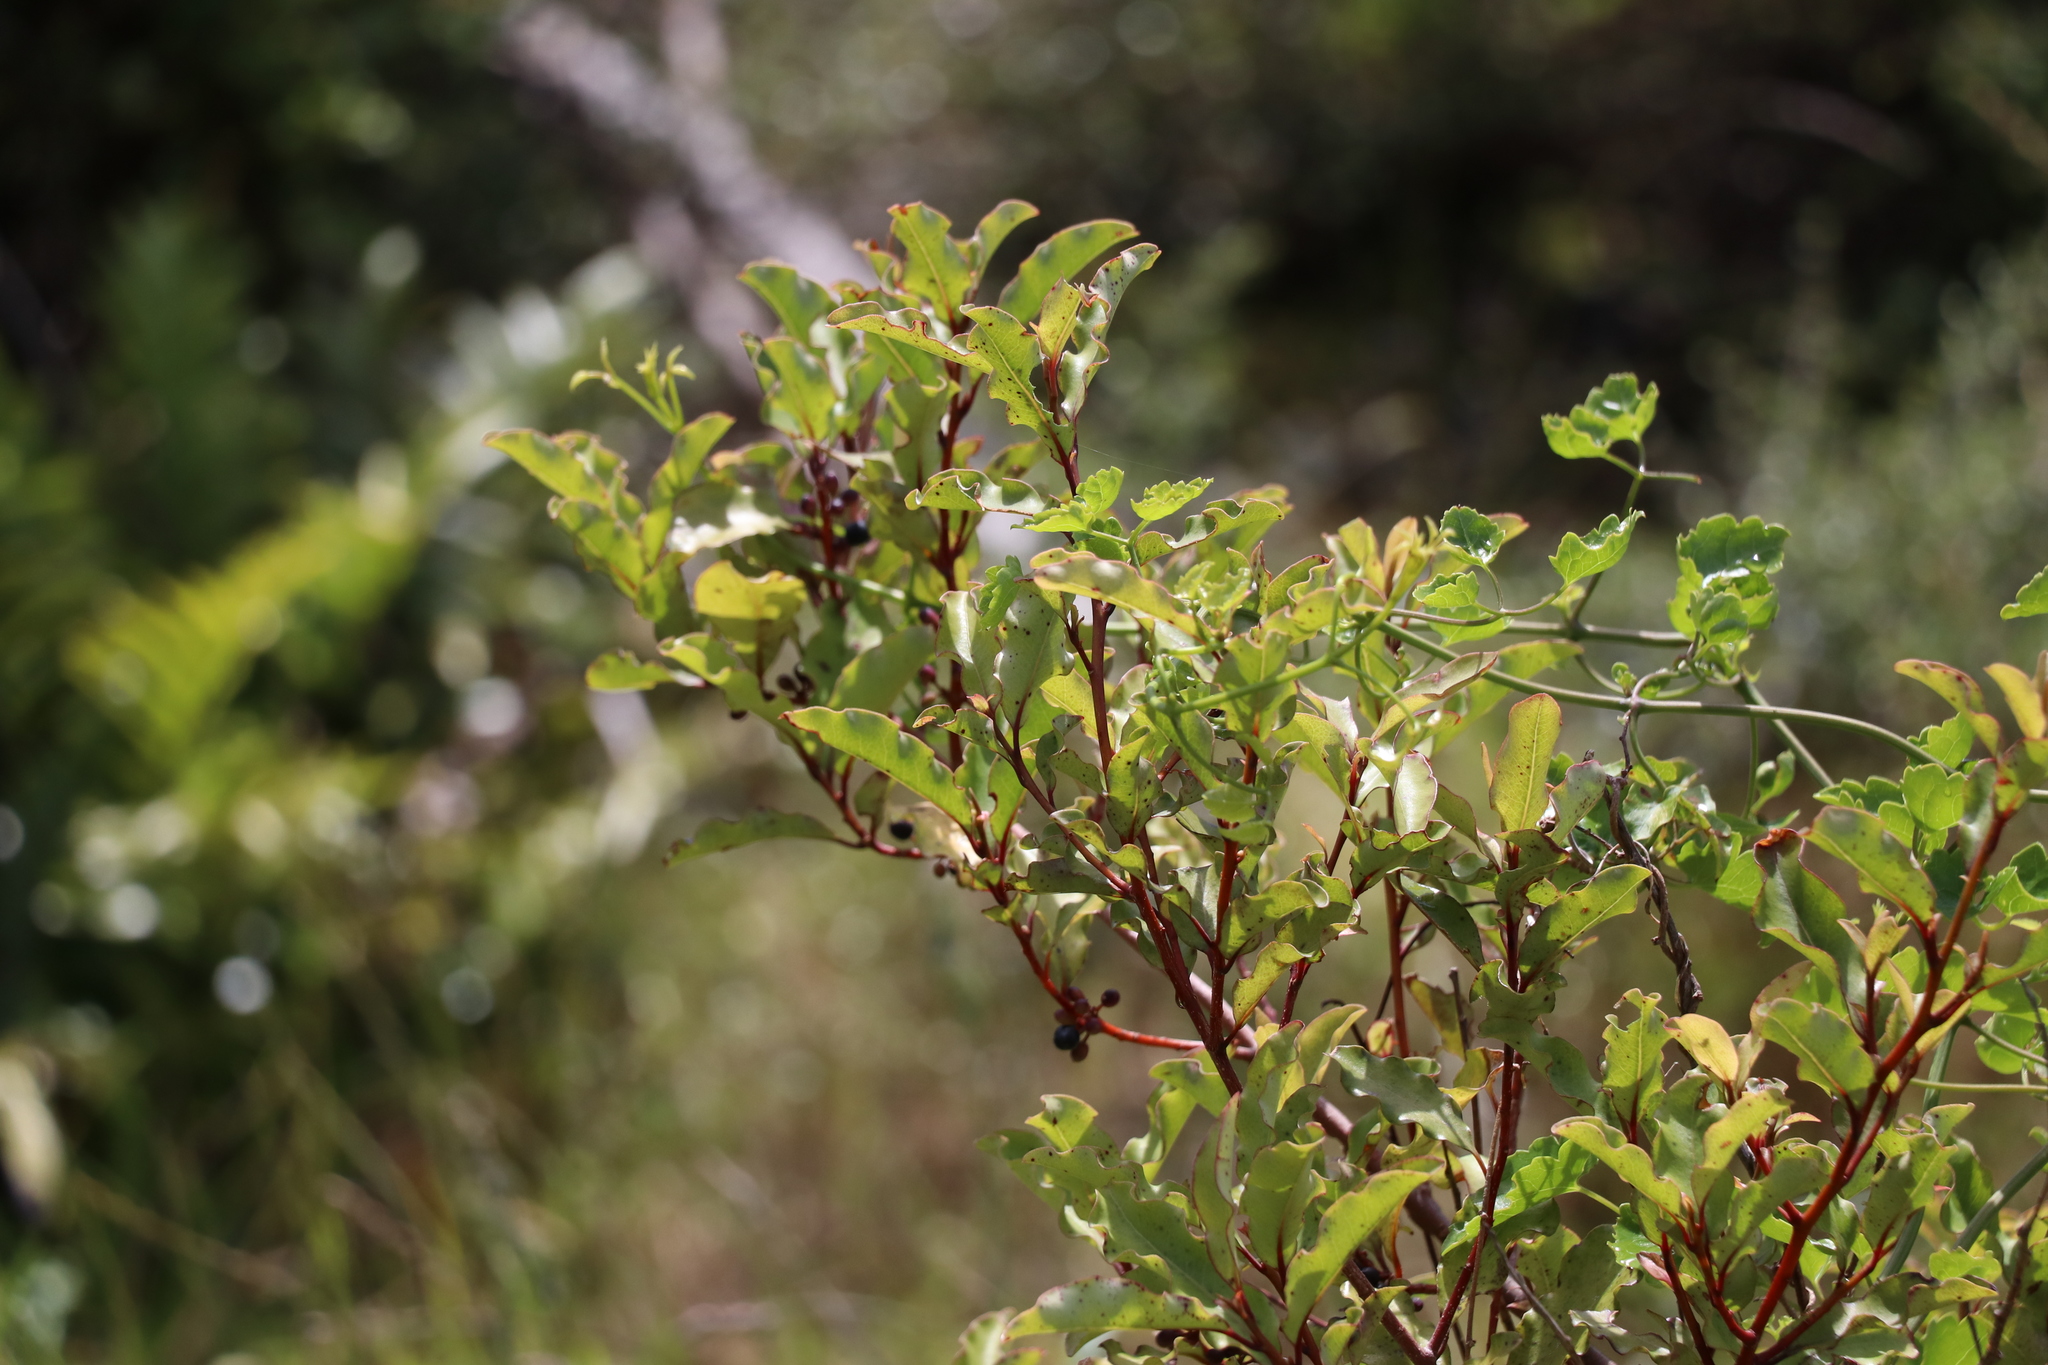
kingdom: Plantae
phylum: Tracheophyta
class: Magnoliopsida
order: Ericales
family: Primulaceae
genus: Myrsine
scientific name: Myrsine australis
